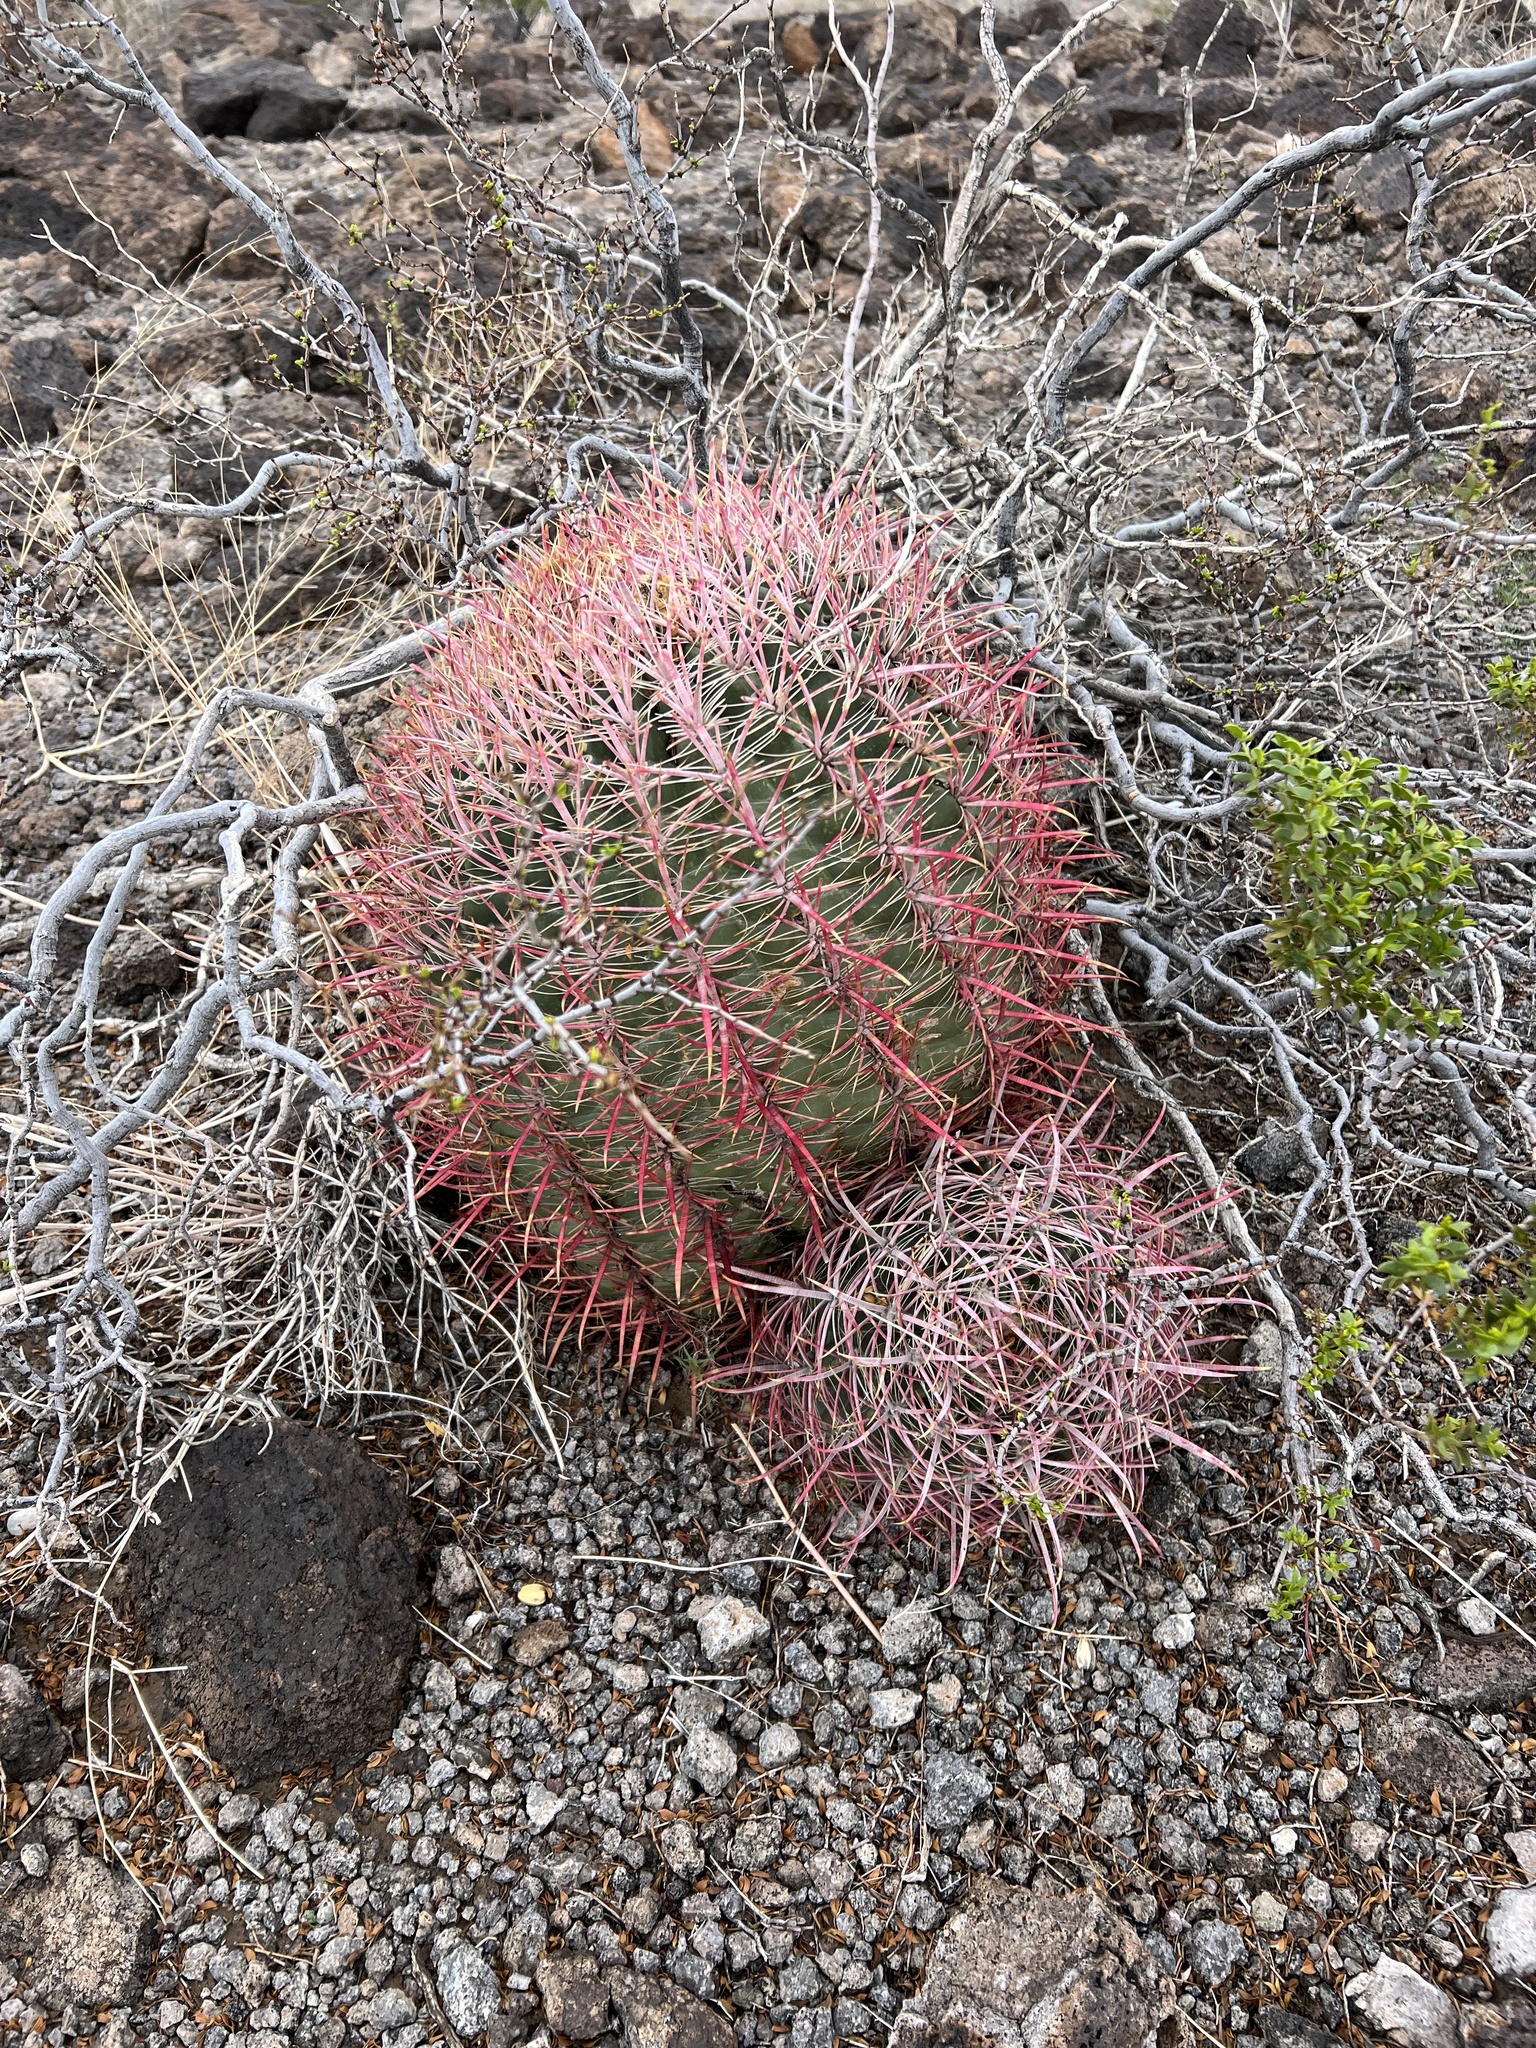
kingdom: Plantae
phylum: Tracheophyta
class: Magnoliopsida
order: Caryophyllales
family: Cactaceae
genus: Ferocactus
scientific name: Ferocactus cylindraceus
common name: California barrel cactus
